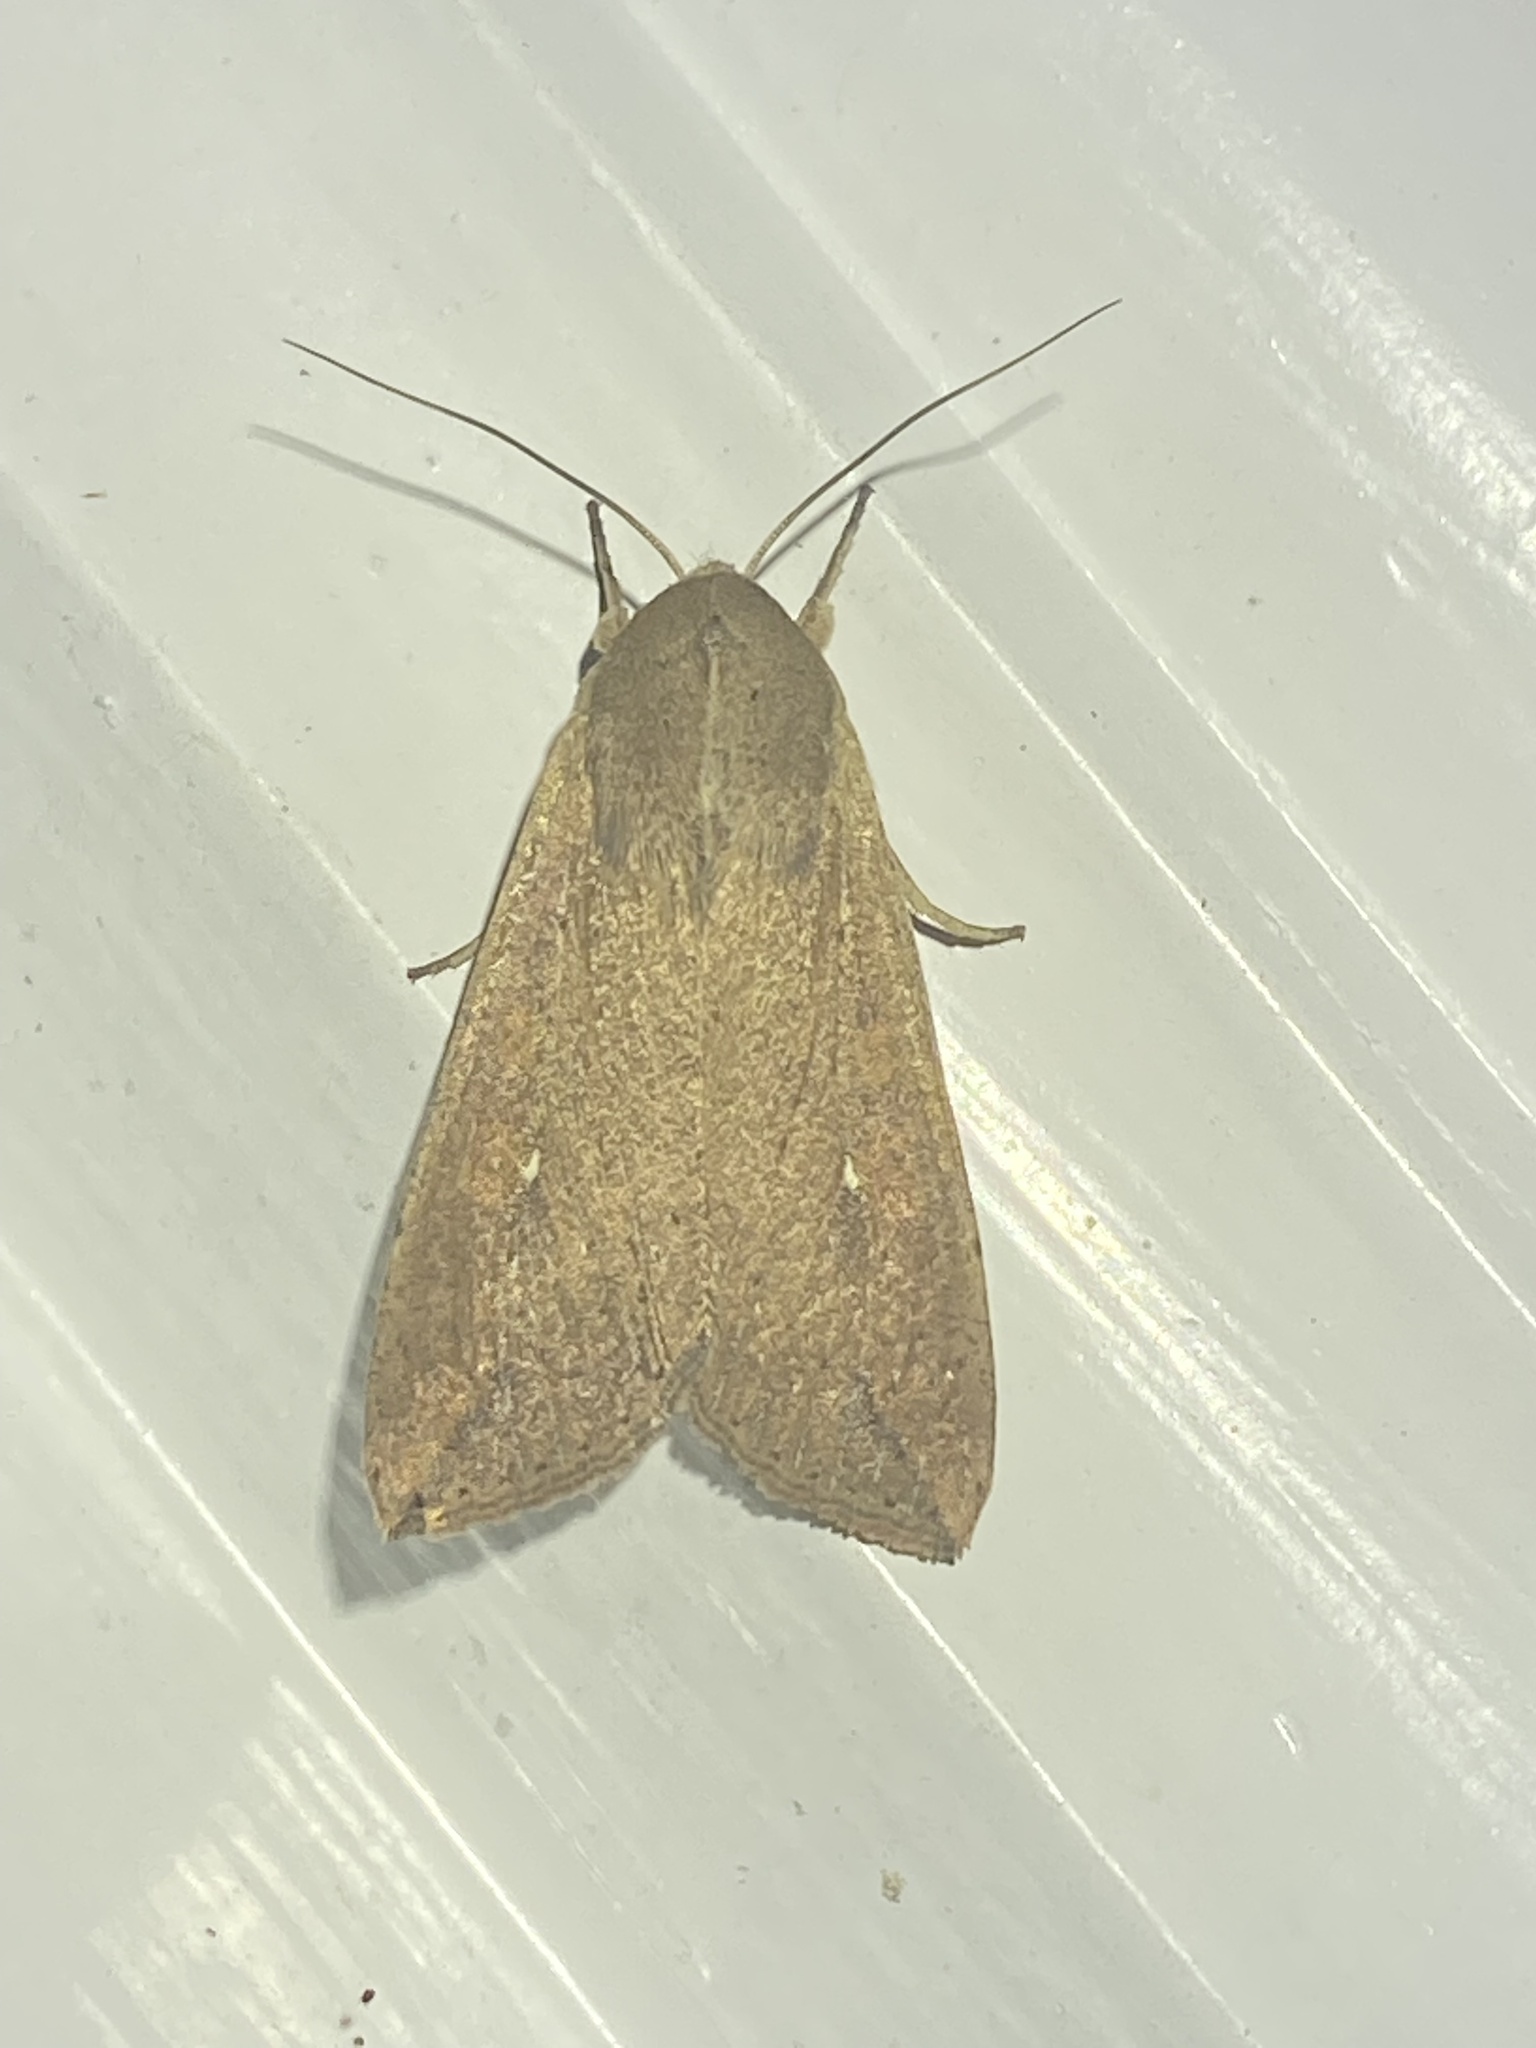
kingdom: Animalia
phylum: Arthropoda
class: Insecta
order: Lepidoptera
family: Noctuidae
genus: Mythimna
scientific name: Mythimna unipuncta
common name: White-speck
